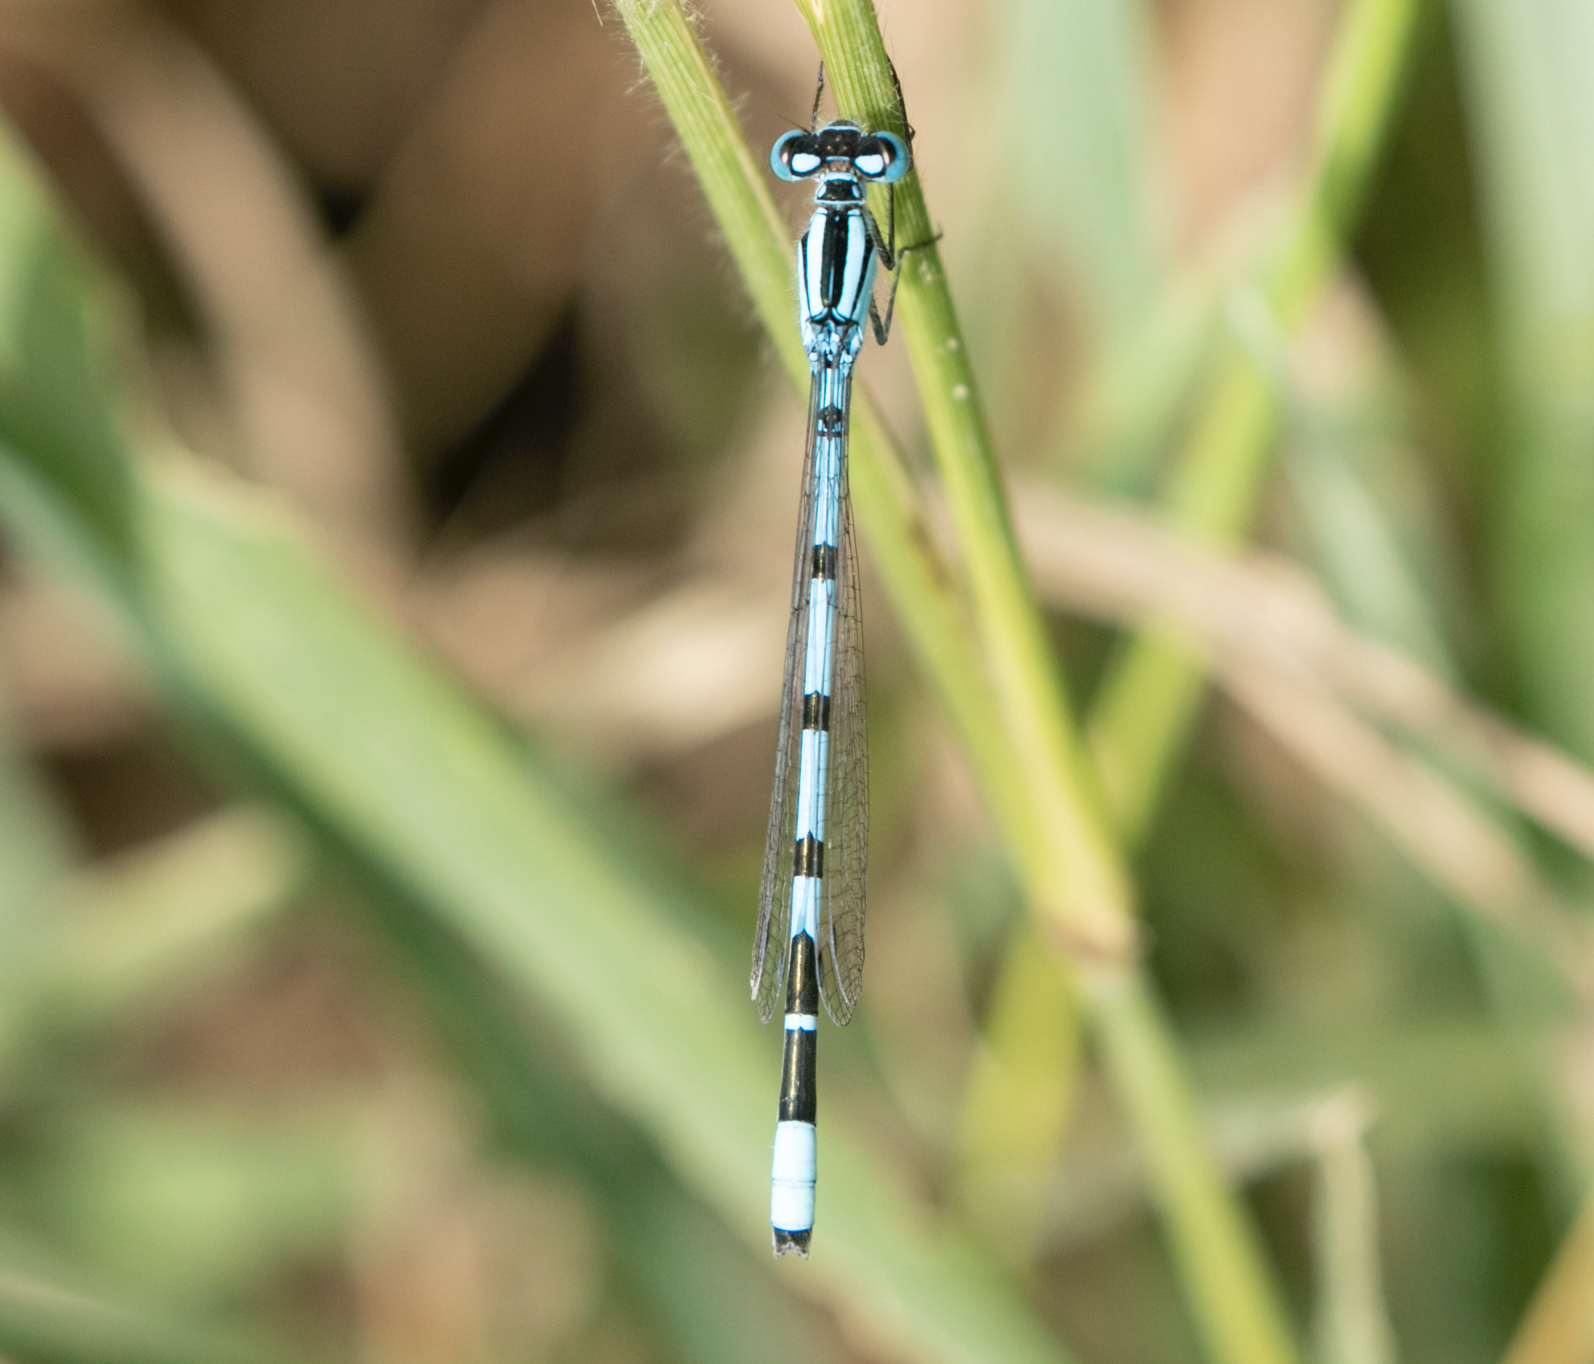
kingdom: Animalia
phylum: Arthropoda
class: Insecta
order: Odonata
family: Coenagrionidae
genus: Enallagma
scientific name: Enallagma cyathigerum
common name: Common blue damselfly
